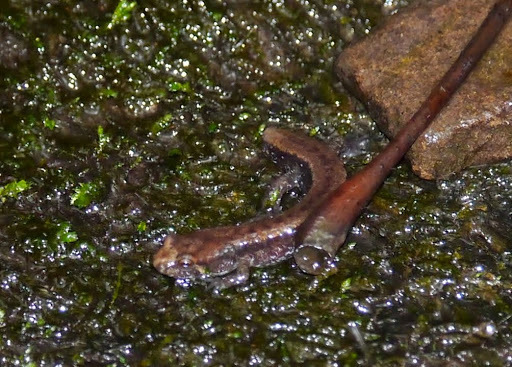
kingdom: Animalia
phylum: Chordata
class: Amphibia
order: Caudata
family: Plethodontidae
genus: Desmognathus
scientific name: Desmognathus ochrophaeus
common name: Allegheny mountain dusky salamander
